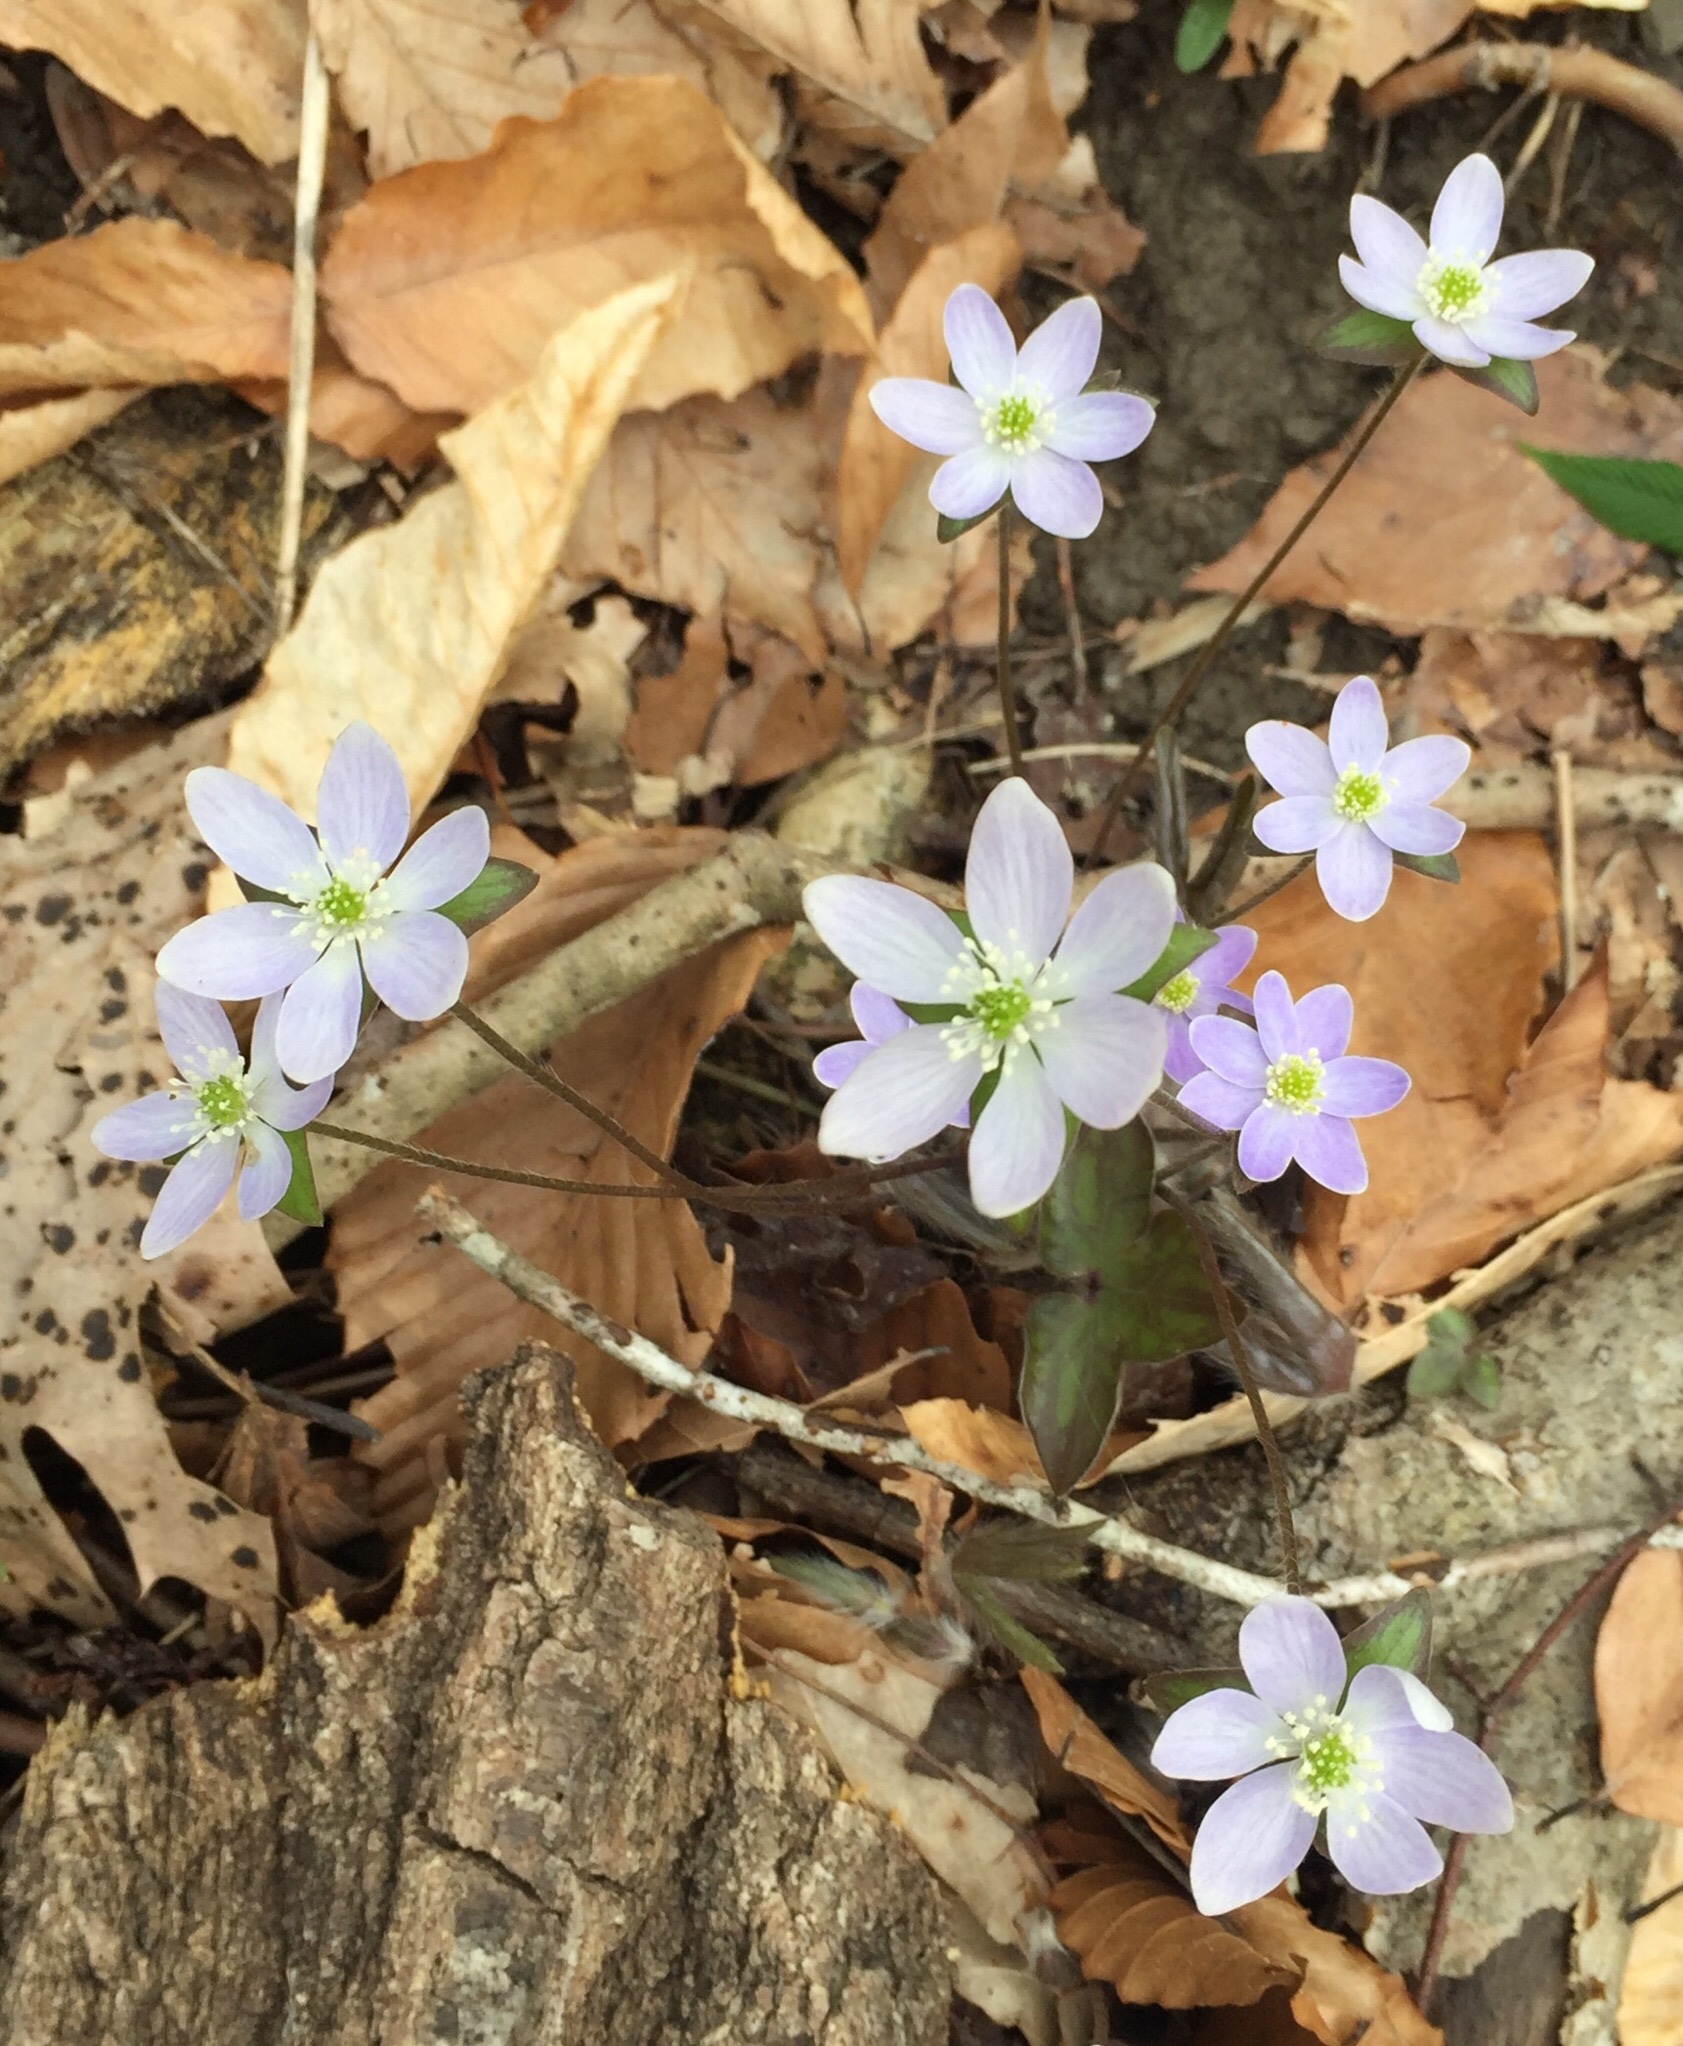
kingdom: Plantae
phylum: Tracheophyta
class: Magnoliopsida
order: Ranunculales
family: Ranunculaceae
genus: Hepatica
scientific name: Hepatica acutiloba
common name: Sharp-lobed hepatica
